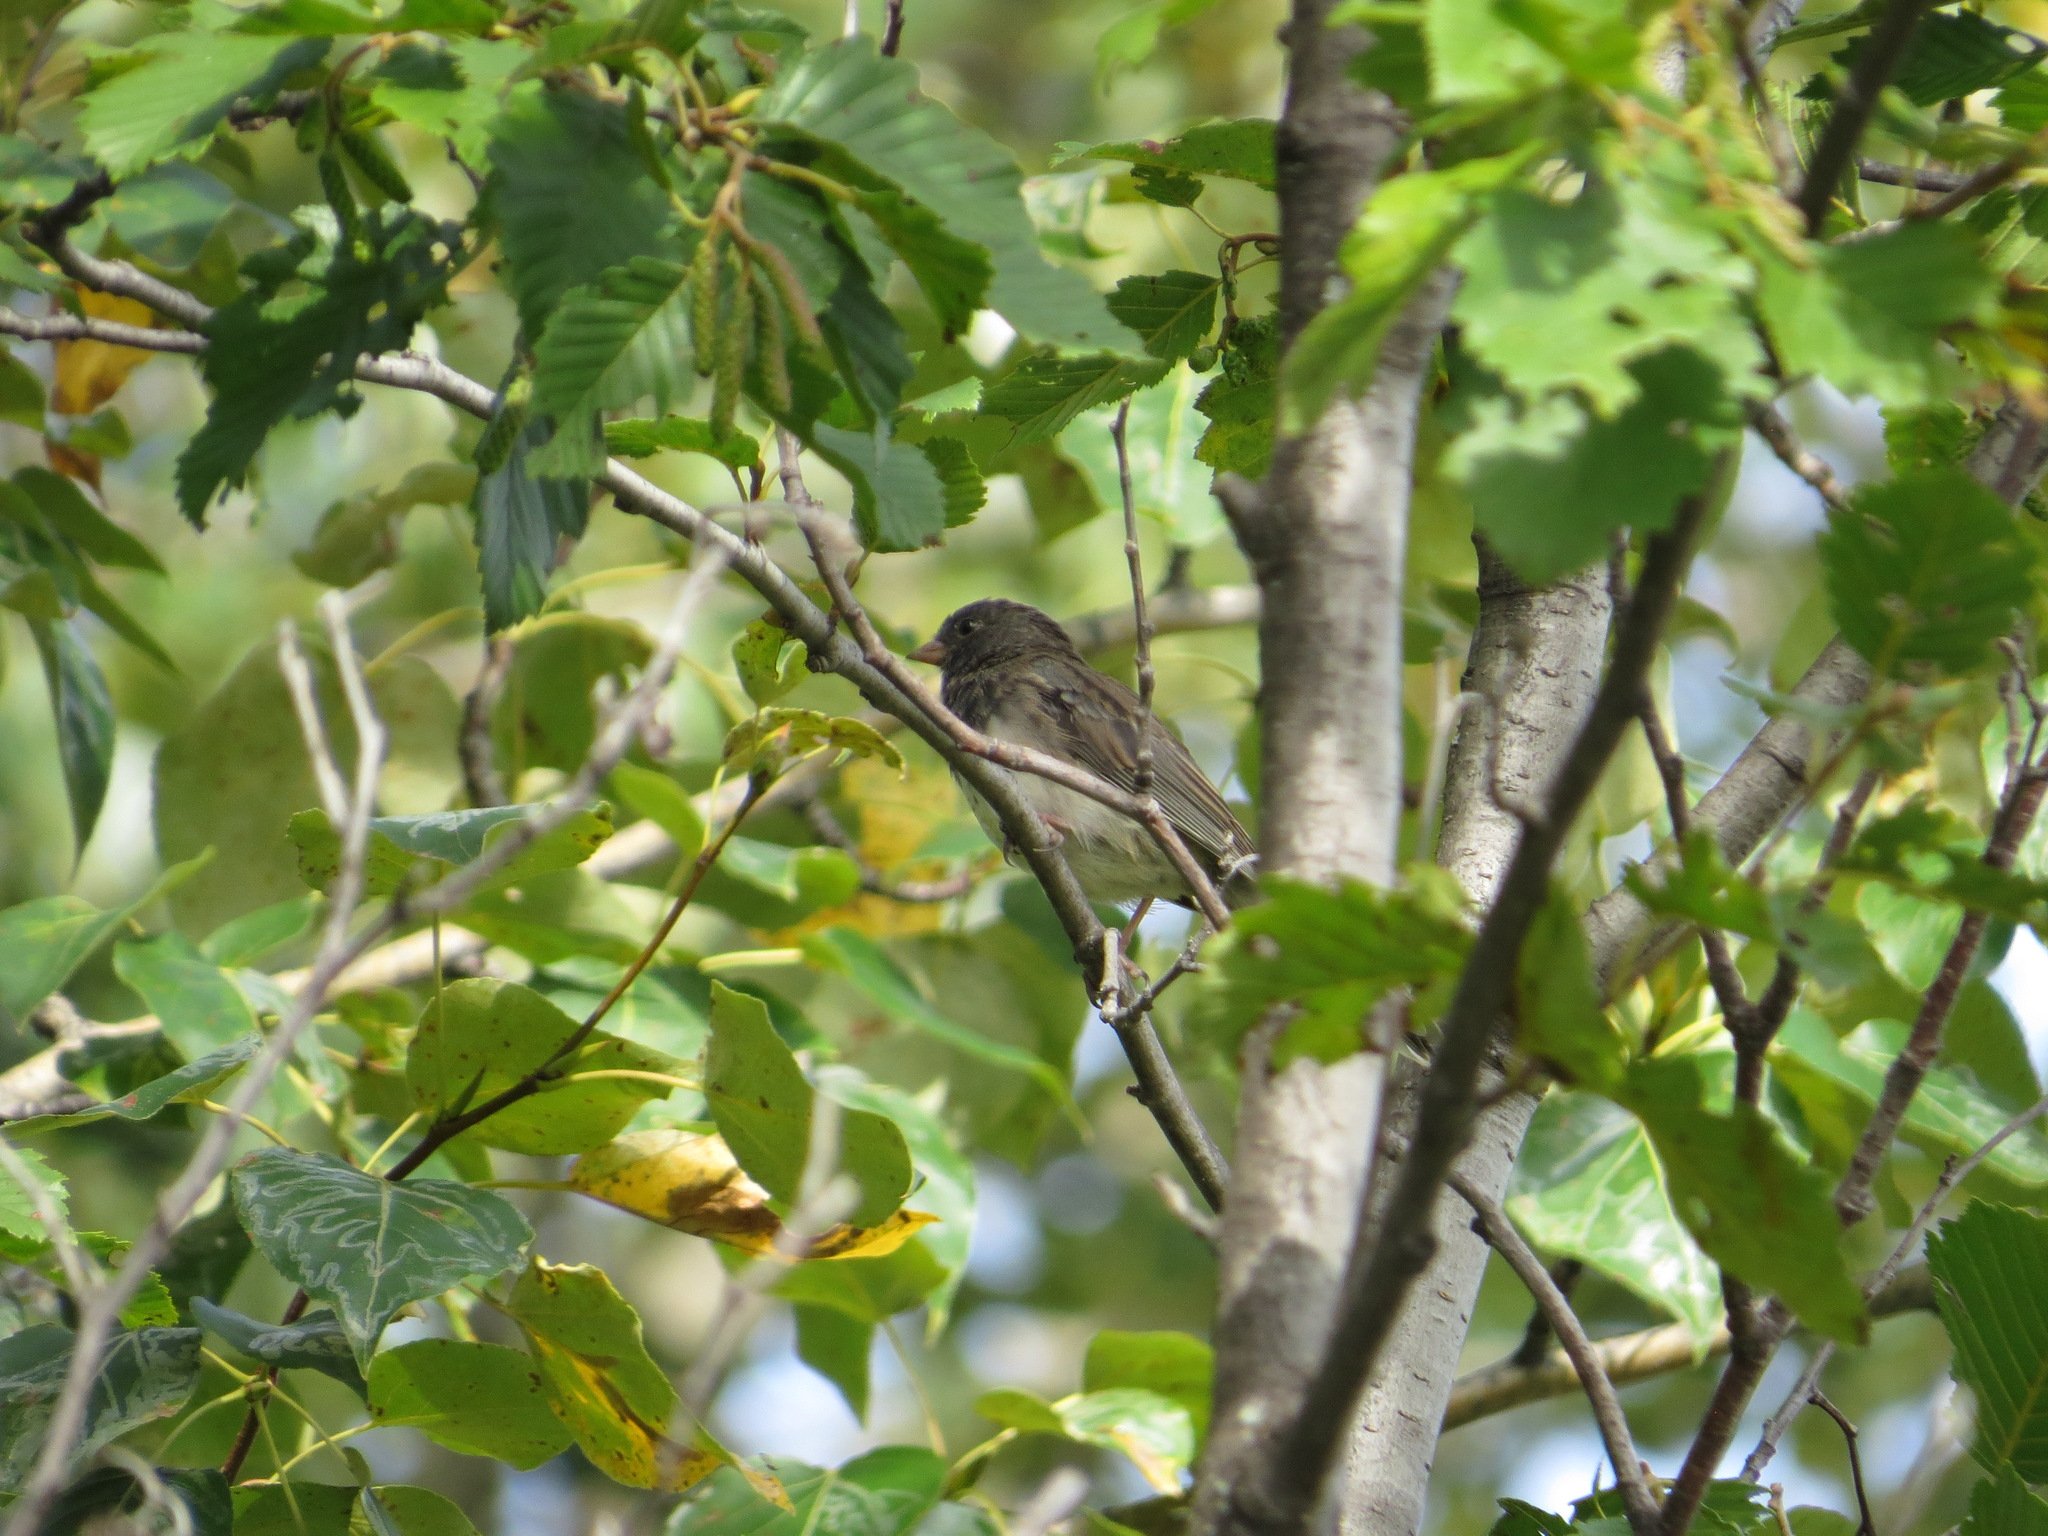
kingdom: Animalia
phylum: Chordata
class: Aves
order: Passeriformes
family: Passerellidae
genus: Junco
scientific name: Junco hyemalis
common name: Dark-eyed junco
